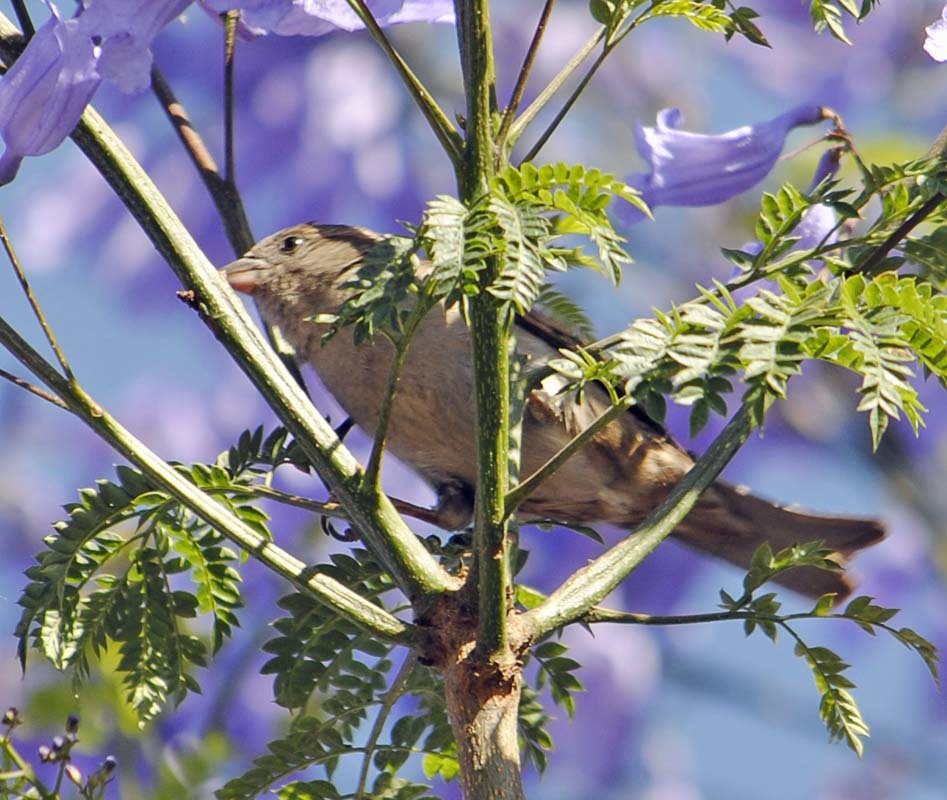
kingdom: Animalia
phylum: Chordata
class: Aves
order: Passeriformes
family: Passeridae
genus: Passer
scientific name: Passer domesticus
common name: House sparrow
